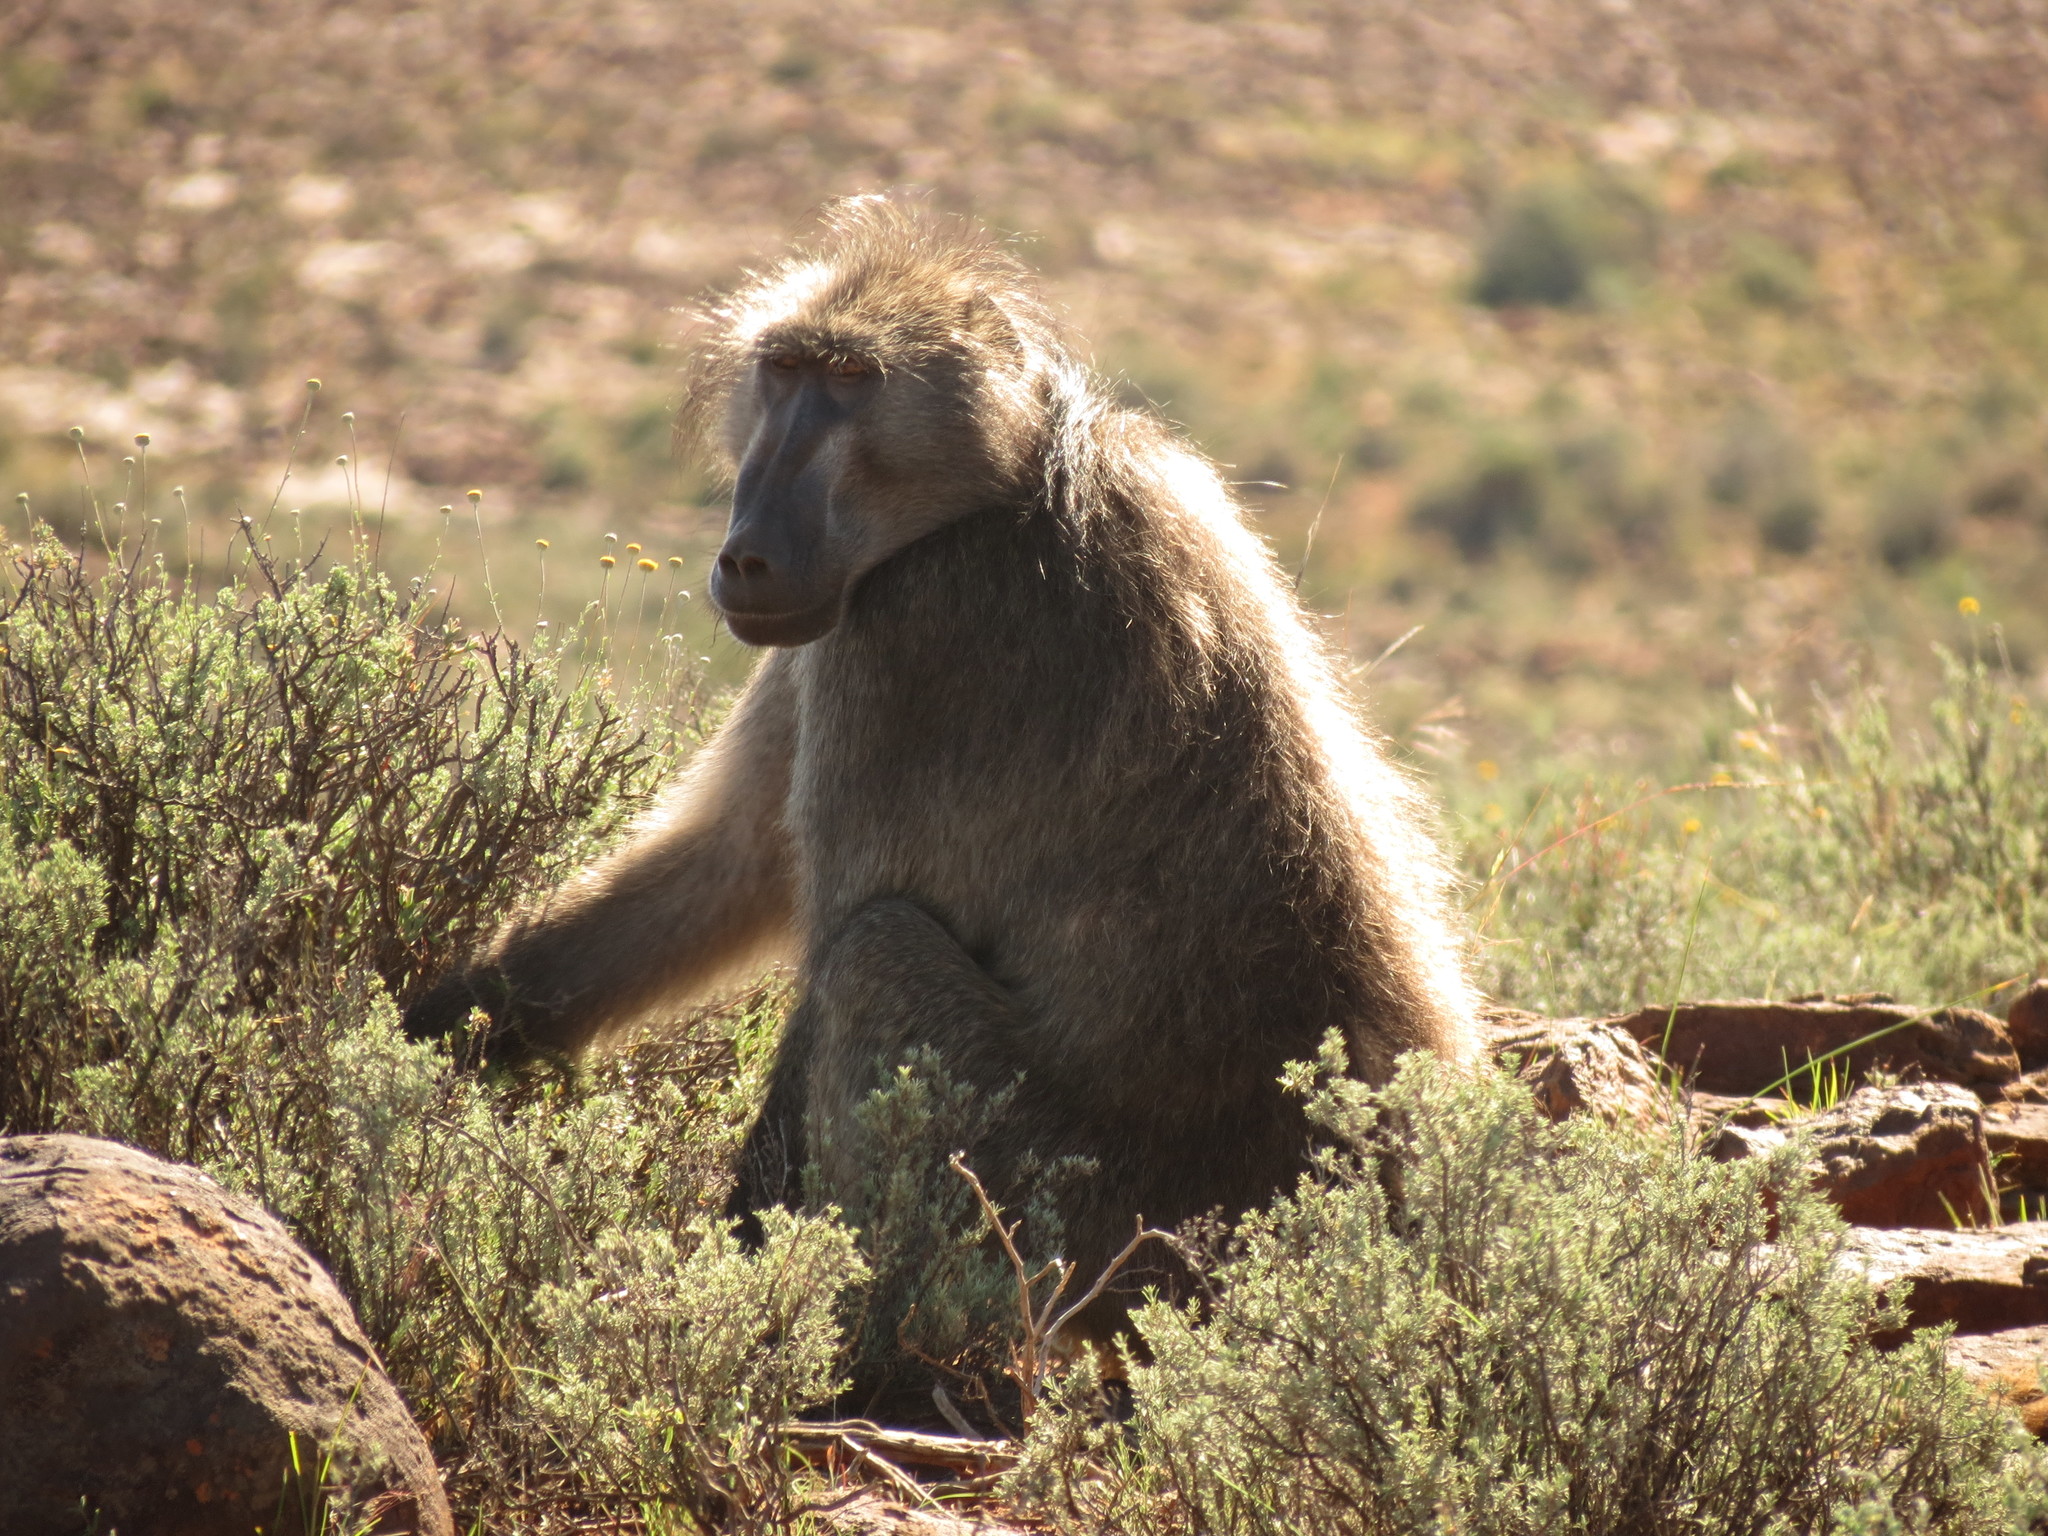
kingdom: Animalia
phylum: Chordata
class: Mammalia
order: Primates
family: Cercopithecidae
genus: Papio
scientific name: Papio ursinus
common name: Chacma baboon
